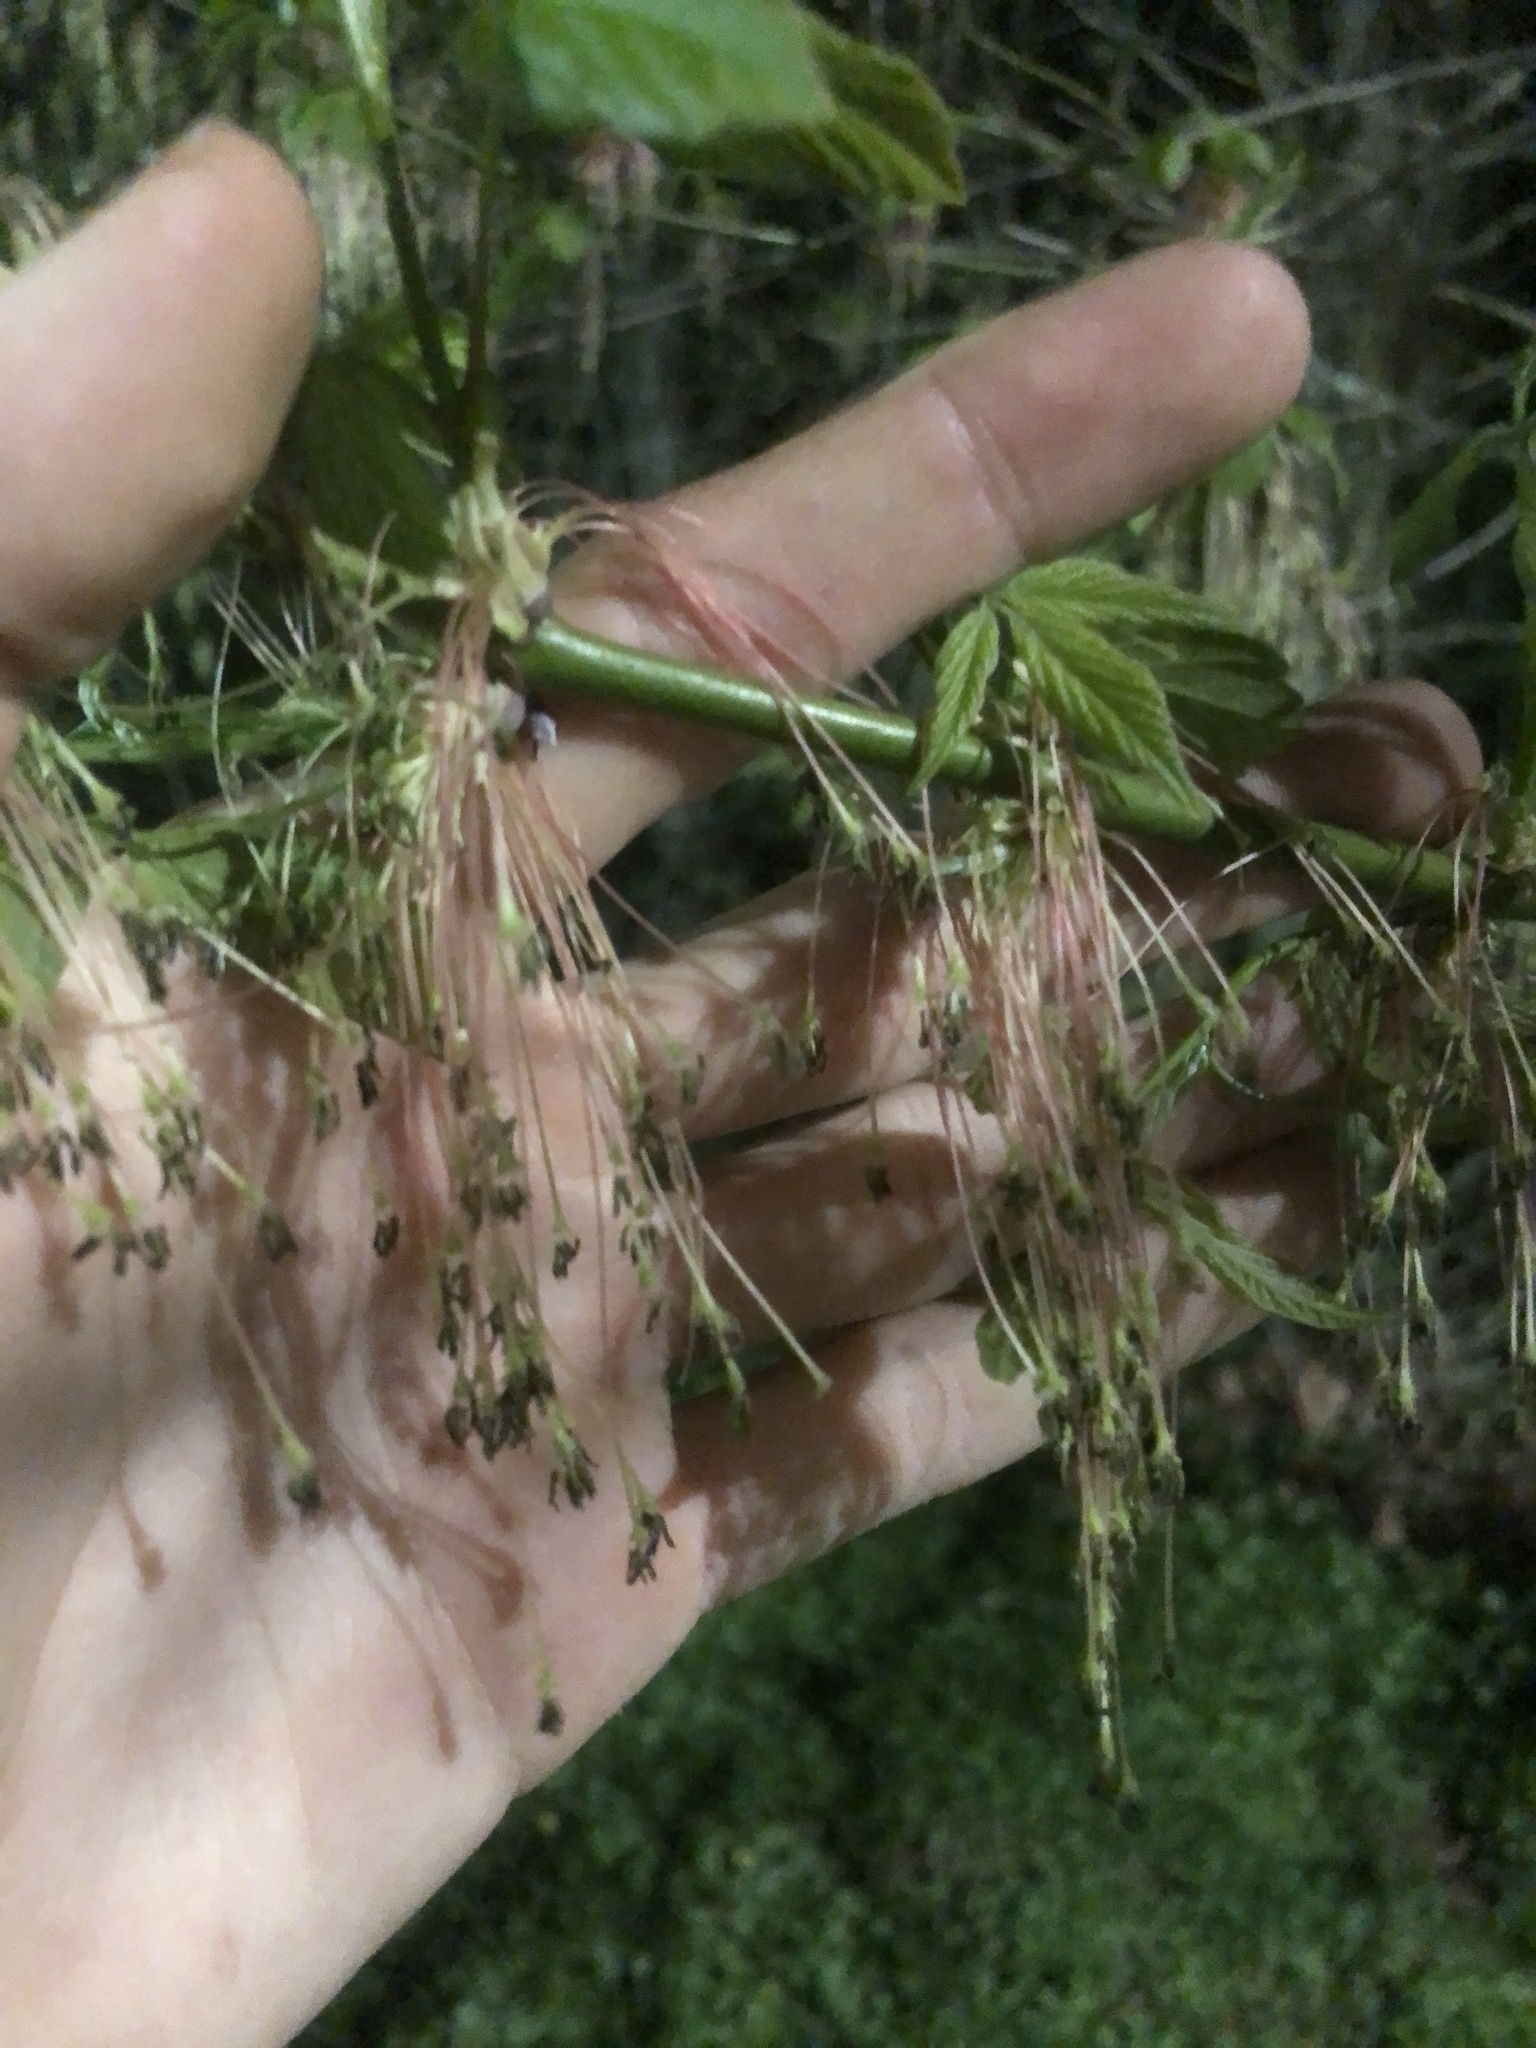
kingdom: Plantae
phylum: Tracheophyta
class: Magnoliopsida
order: Sapindales
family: Sapindaceae
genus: Acer
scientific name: Acer negundo
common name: Ashleaf maple
